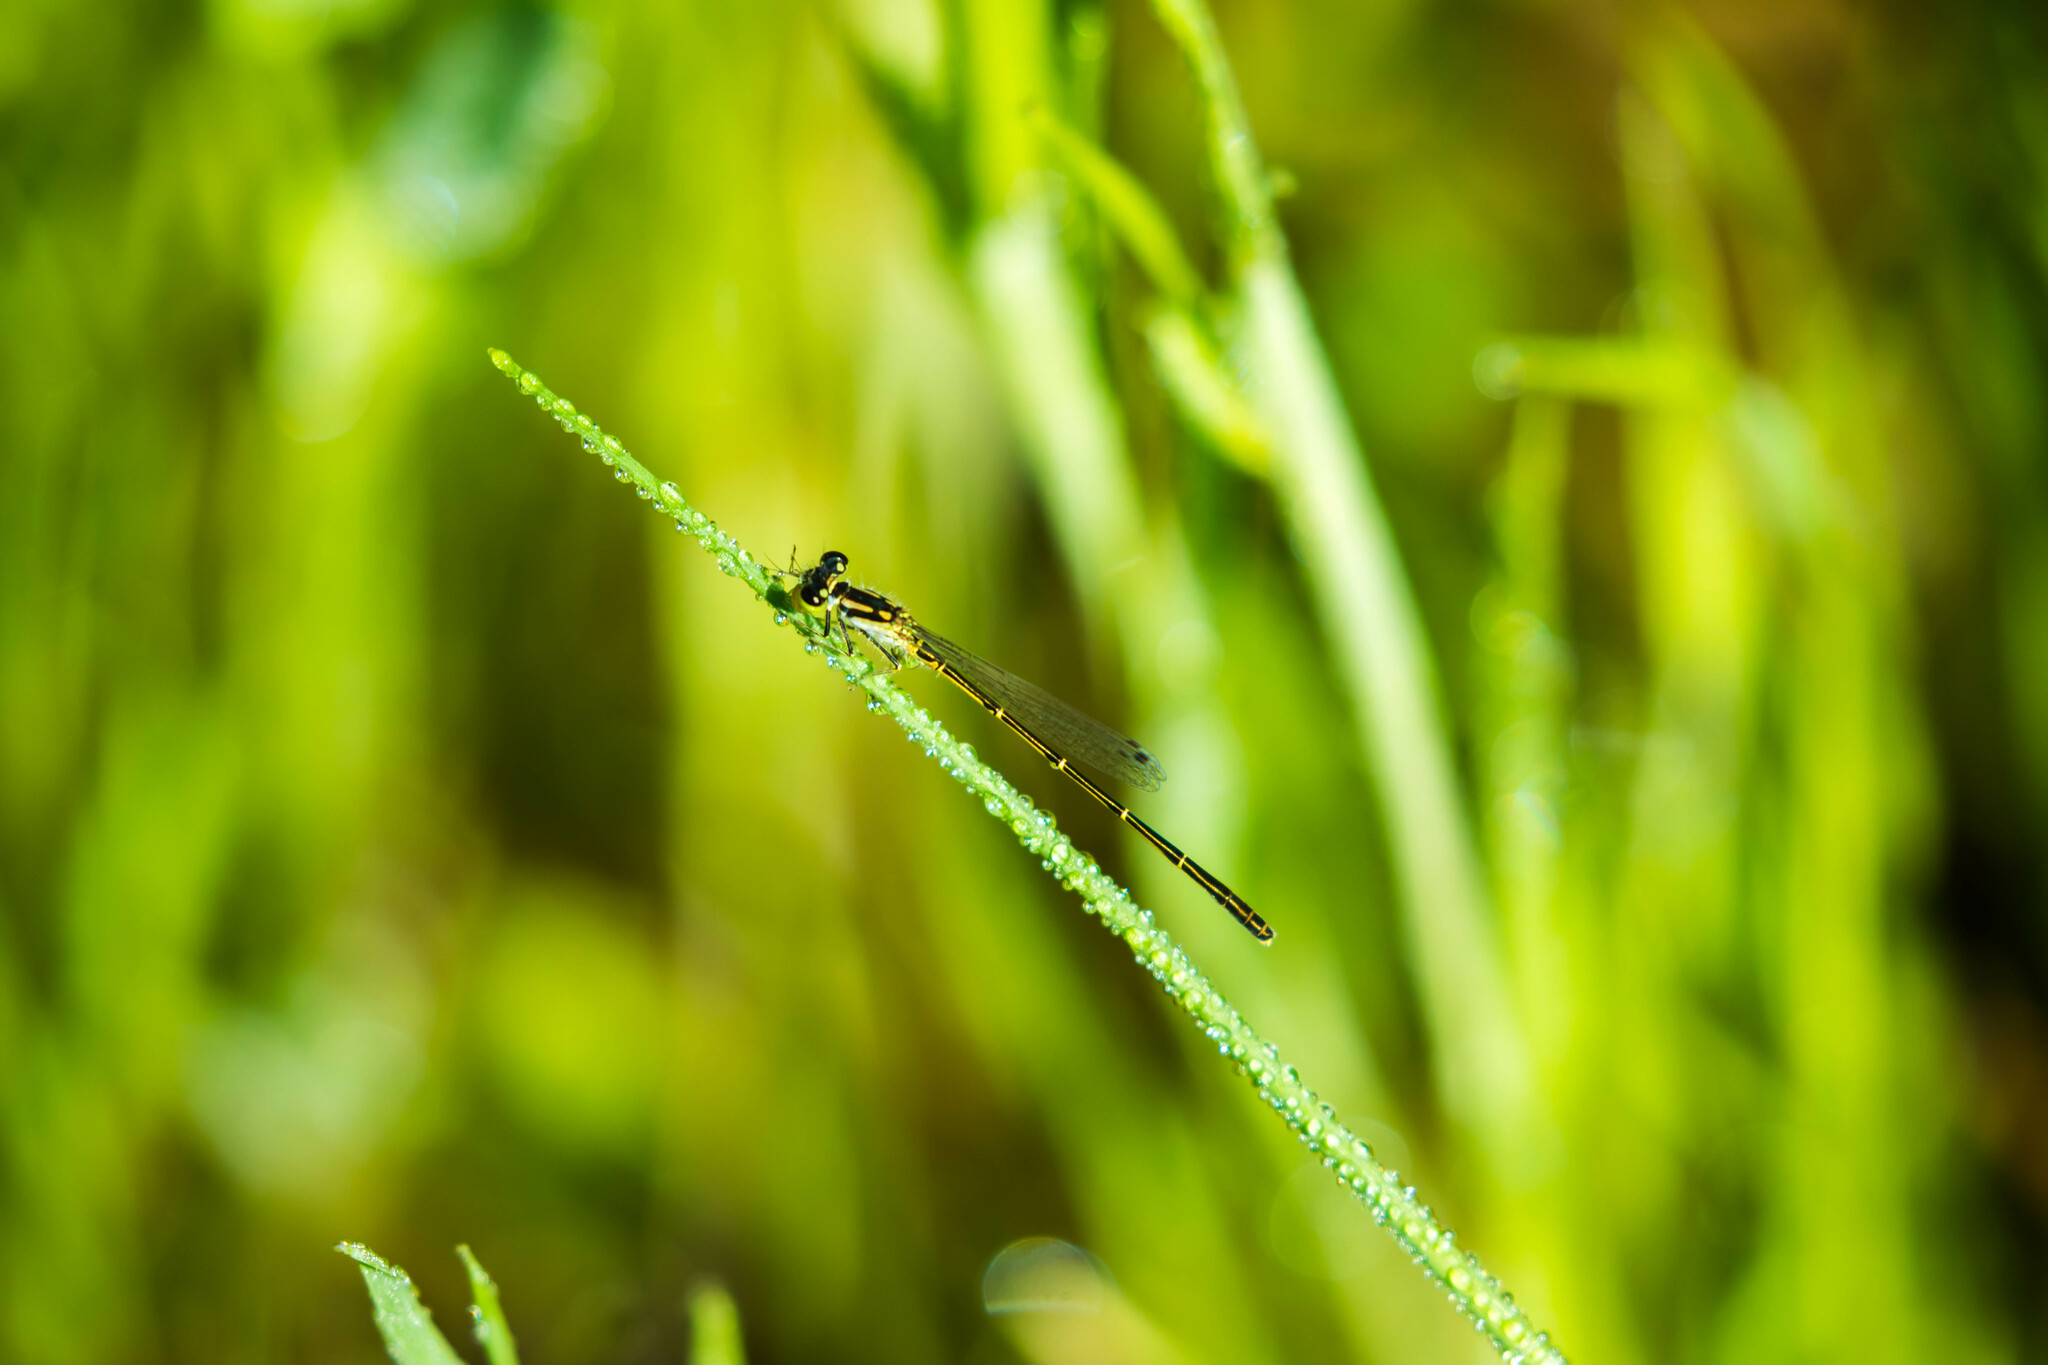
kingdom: Animalia
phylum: Arthropoda
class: Insecta
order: Odonata
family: Coenagrionidae
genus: Ischnura
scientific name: Ischnura posita
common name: Fragile forktail
